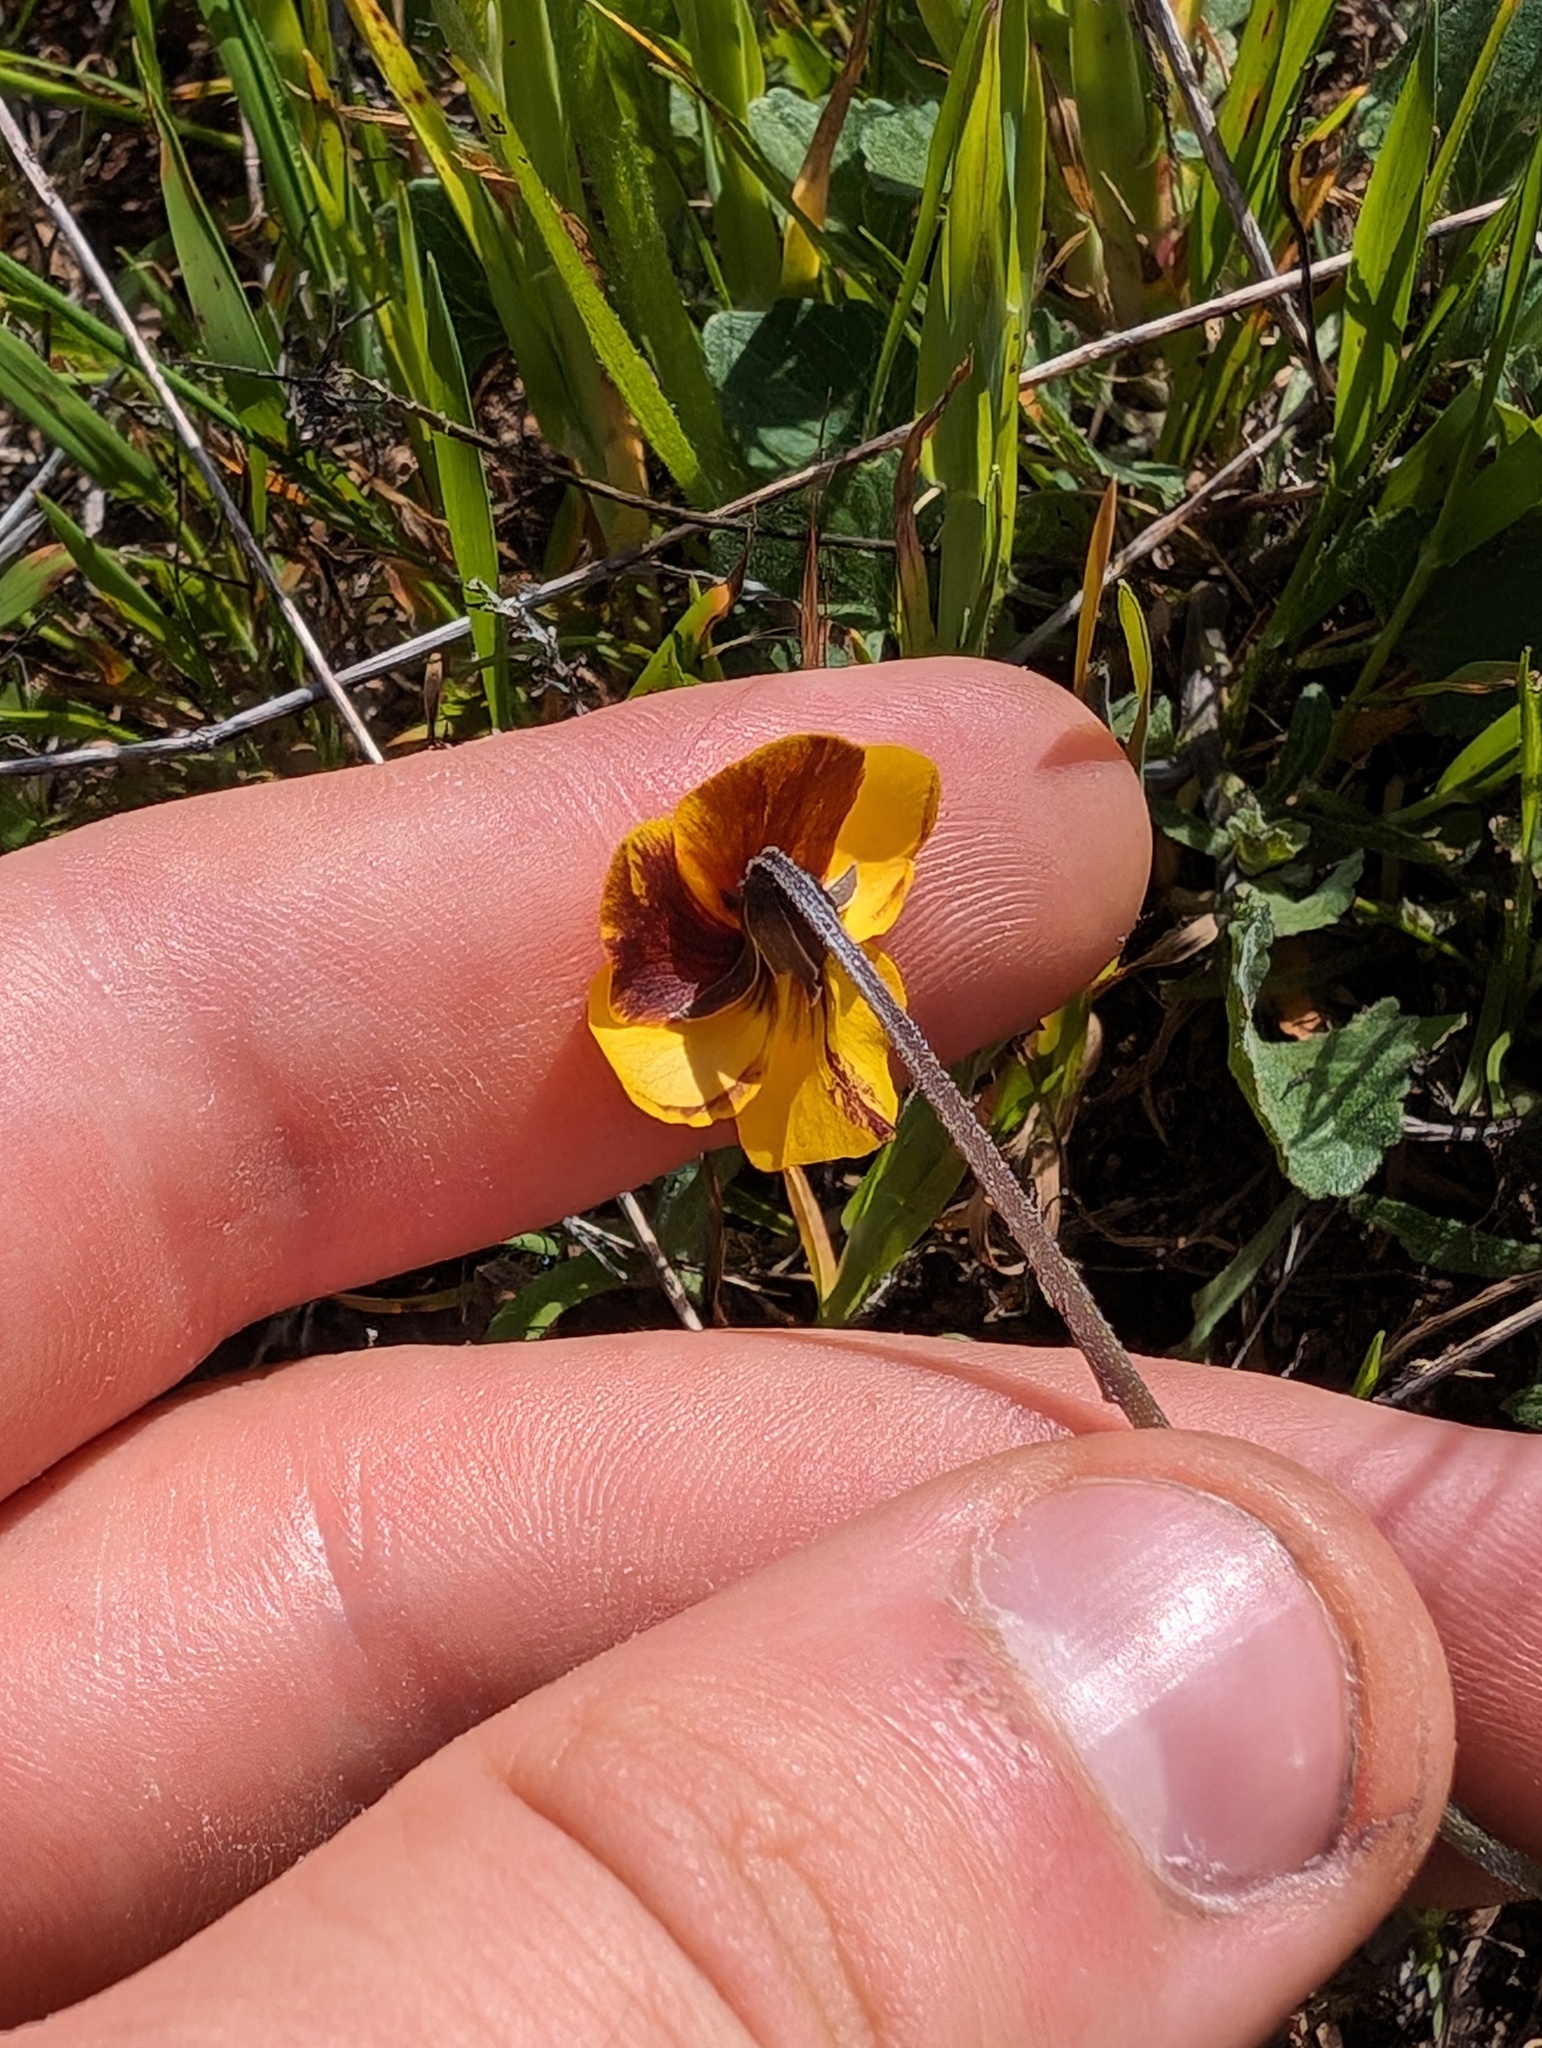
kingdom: Plantae
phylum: Tracheophyta
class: Magnoliopsida
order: Malpighiales
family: Violaceae
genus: Viola
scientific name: Viola pedunculata
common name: California golden violet
